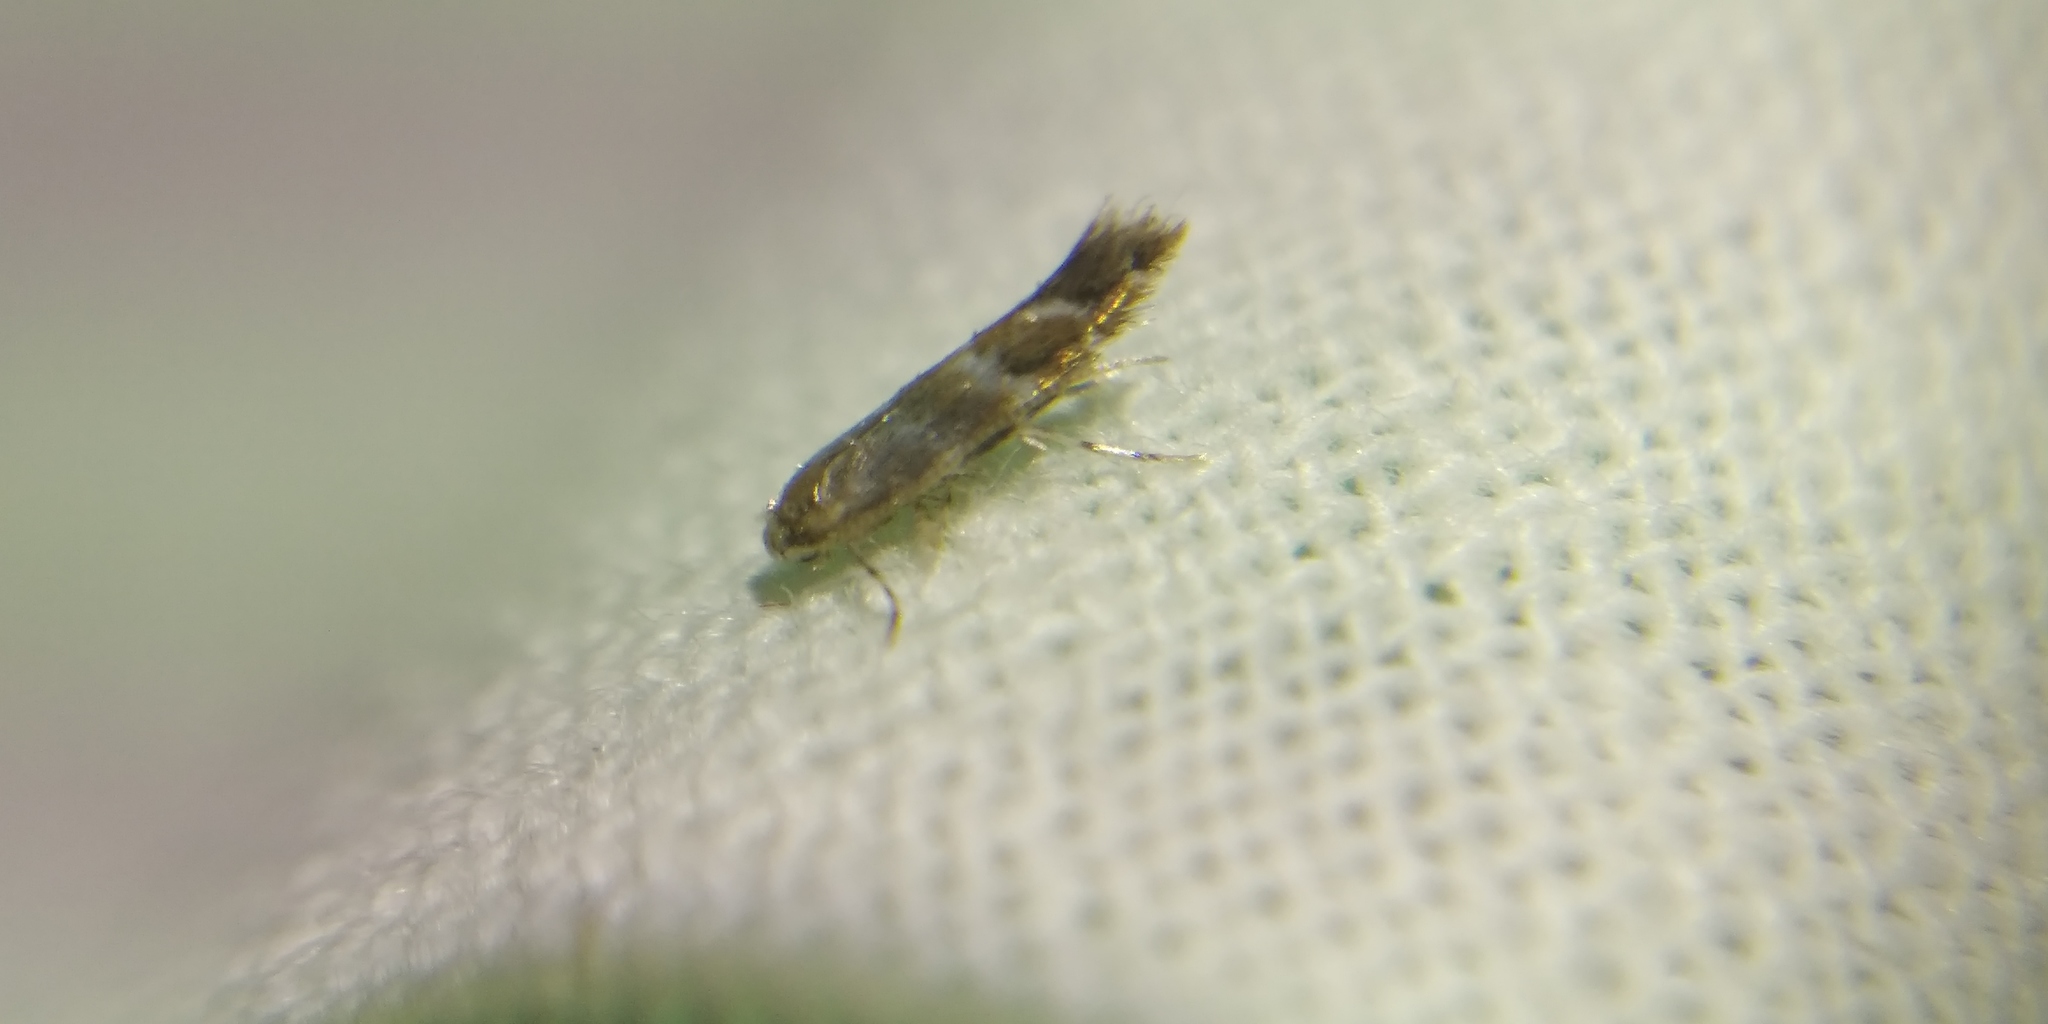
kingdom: Animalia
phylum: Arthropoda
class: Insecta
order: Lepidoptera
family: Gracillariidae
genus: Cameraria
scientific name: Cameraria ohridella
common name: Horse-chestnut leaf-miner
